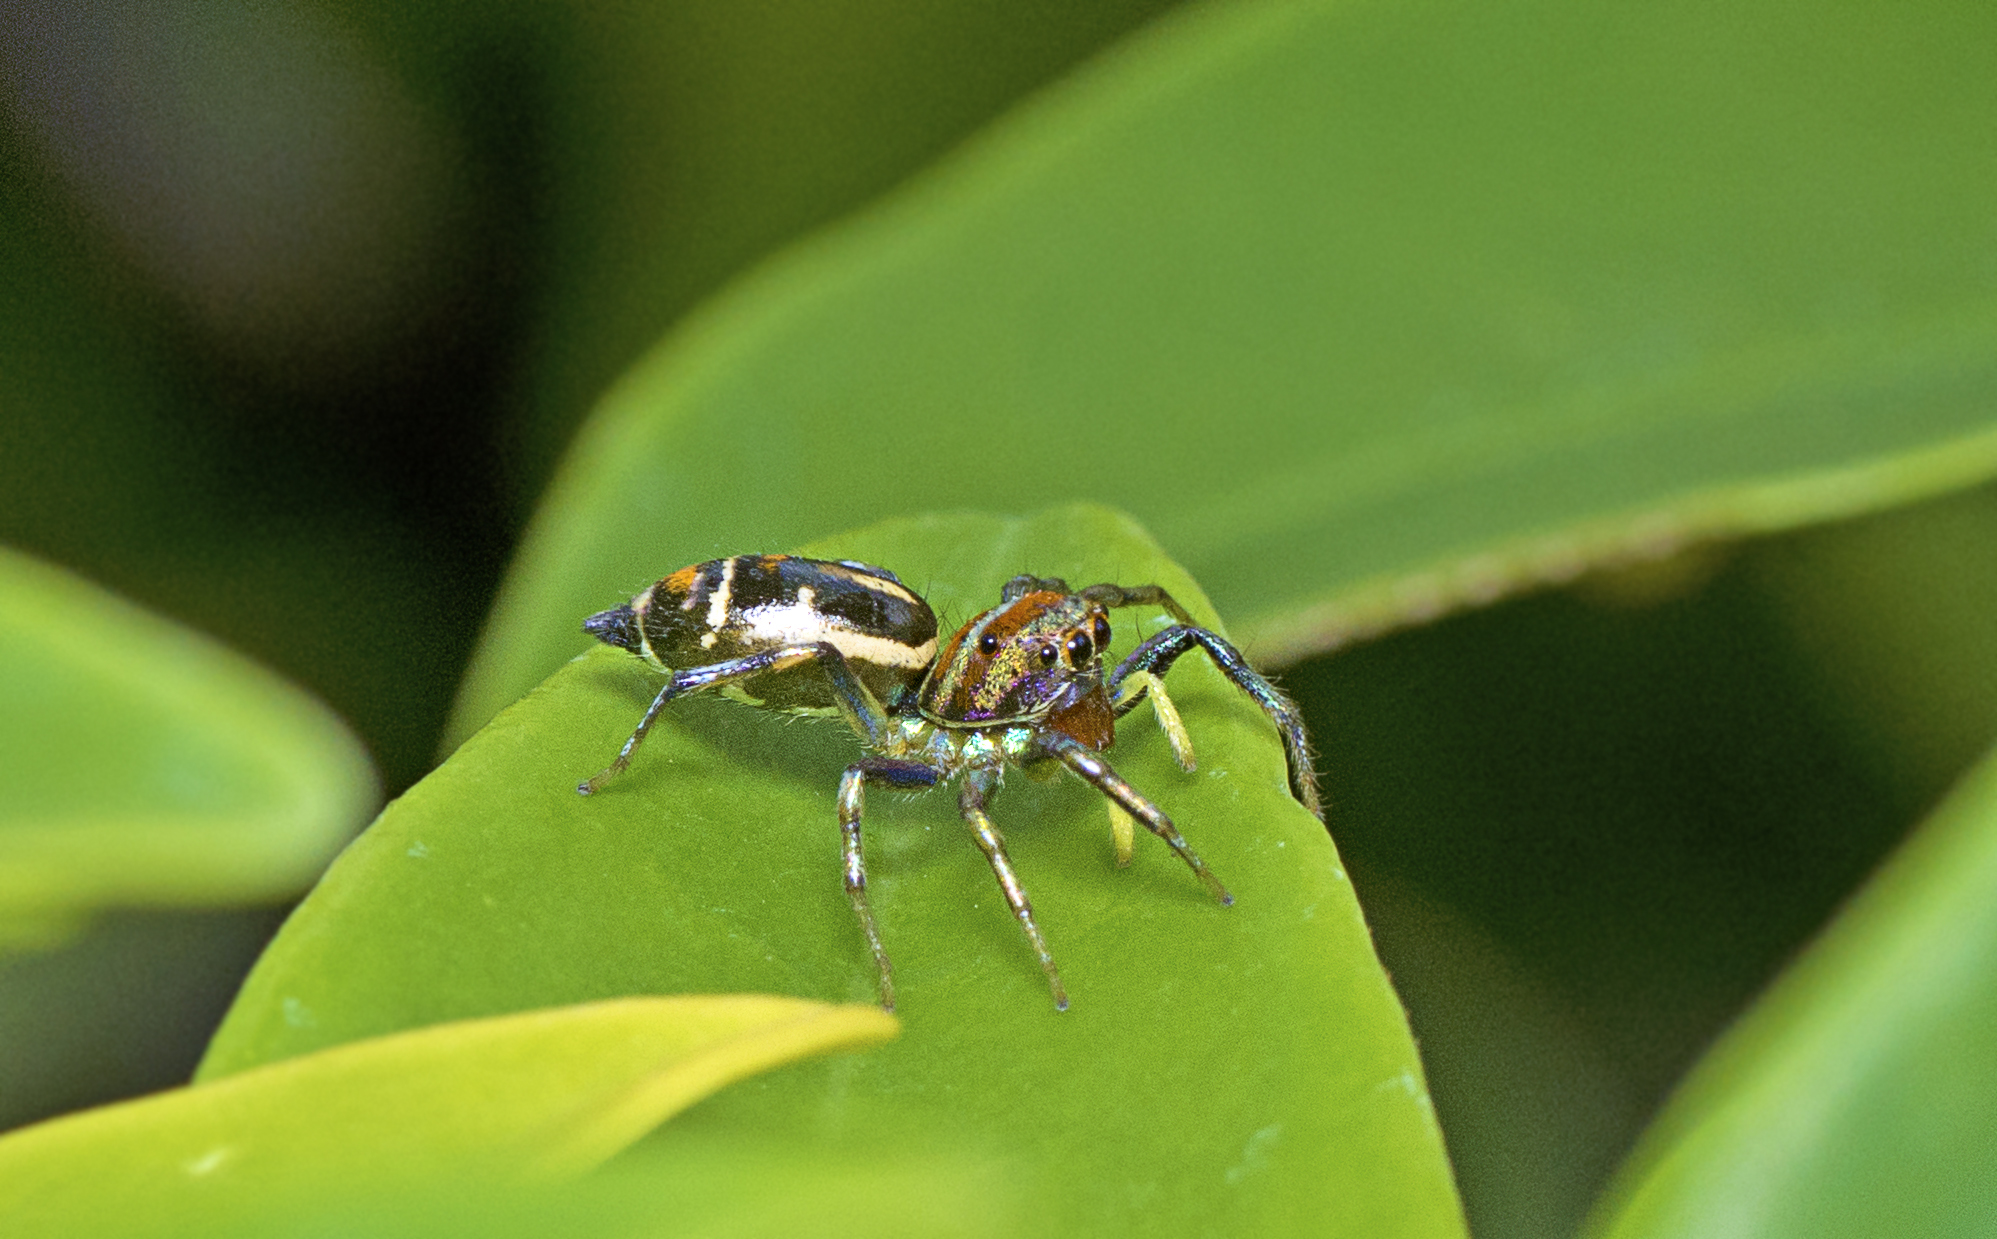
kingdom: Animalia
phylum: Arthropoda
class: Arachnida
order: Araneae
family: Salticidae
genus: Cosmophasis
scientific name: Cosmophasis micarioides
